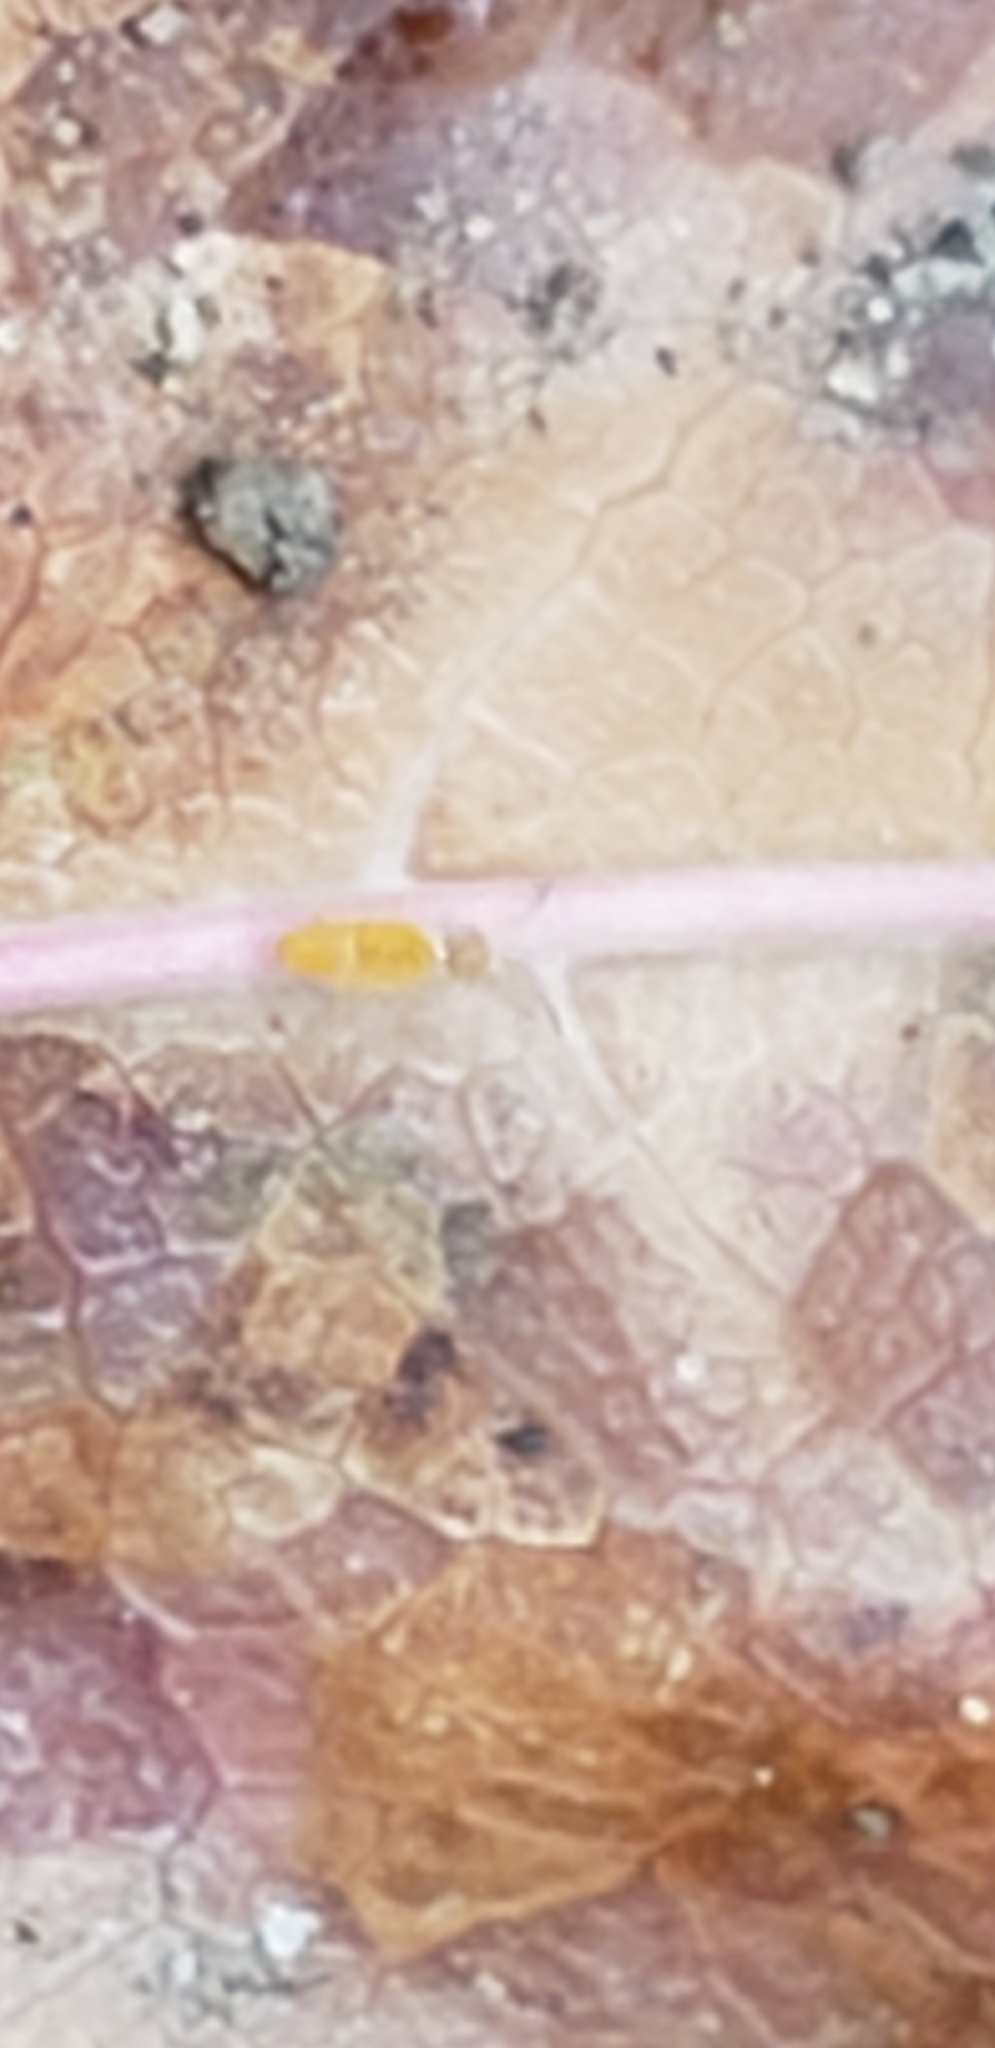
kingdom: Animalia
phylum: Arthropoda
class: Collembola
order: Entomobryomorpha
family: Entomobryidae
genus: Entomobrya
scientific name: Entomobrya atrocincta
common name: Springtail
